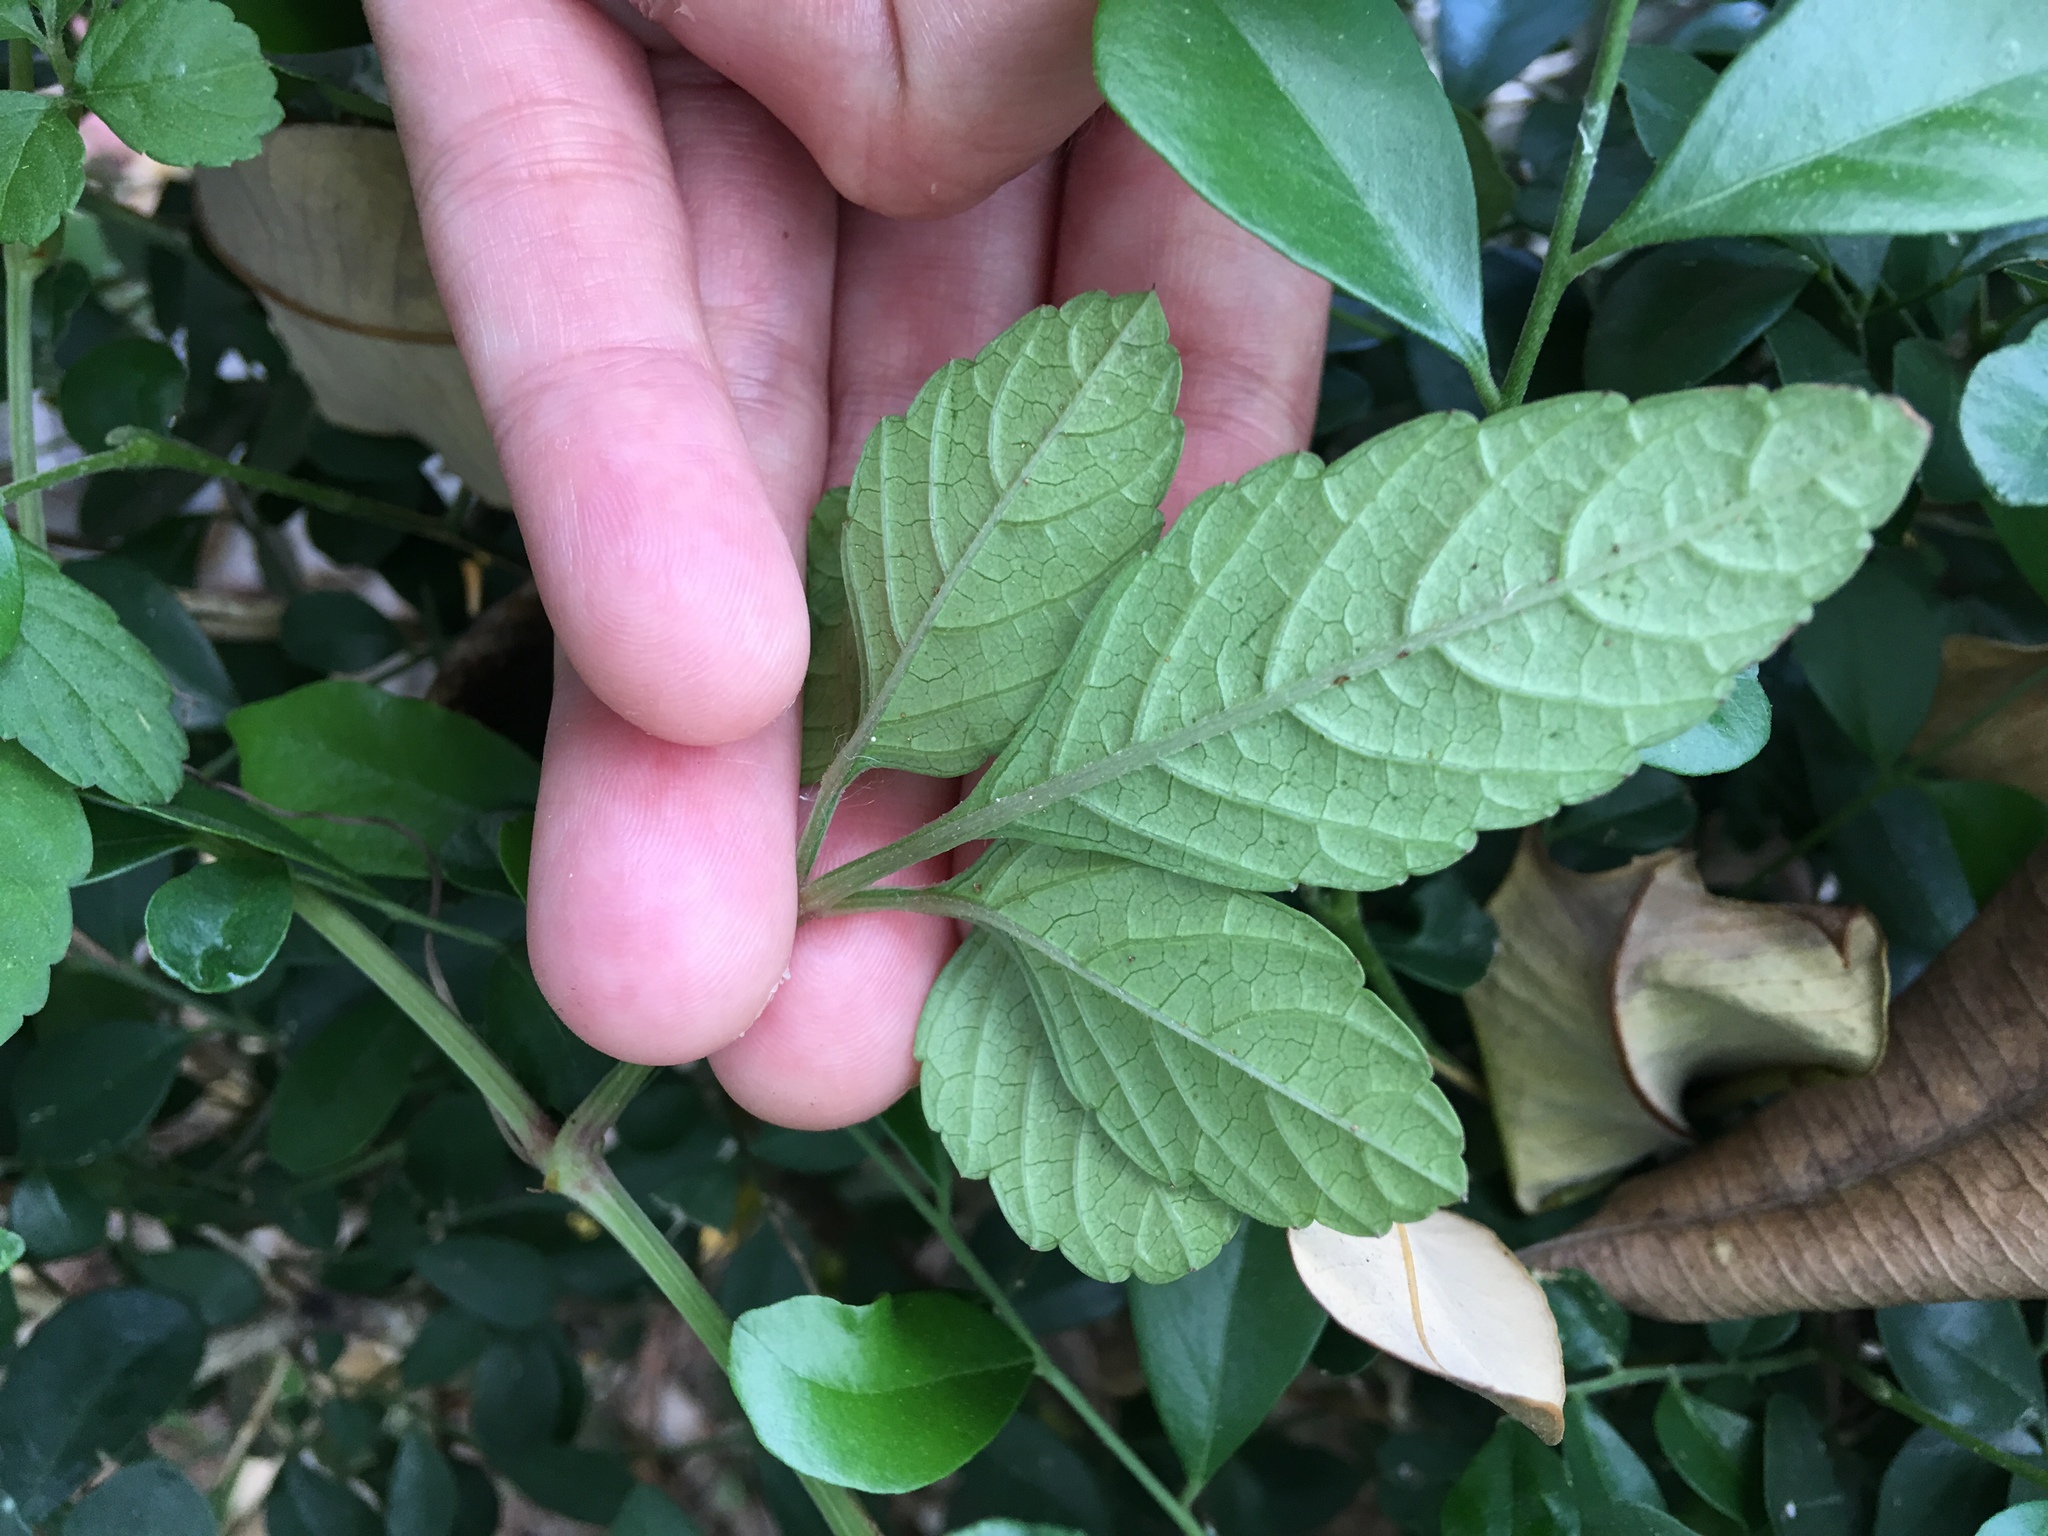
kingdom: Plantae
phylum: Tracheophyta
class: Magnoliopsida
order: Vitales
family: Vitaceae
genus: Causonis
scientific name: Causonis japonica
